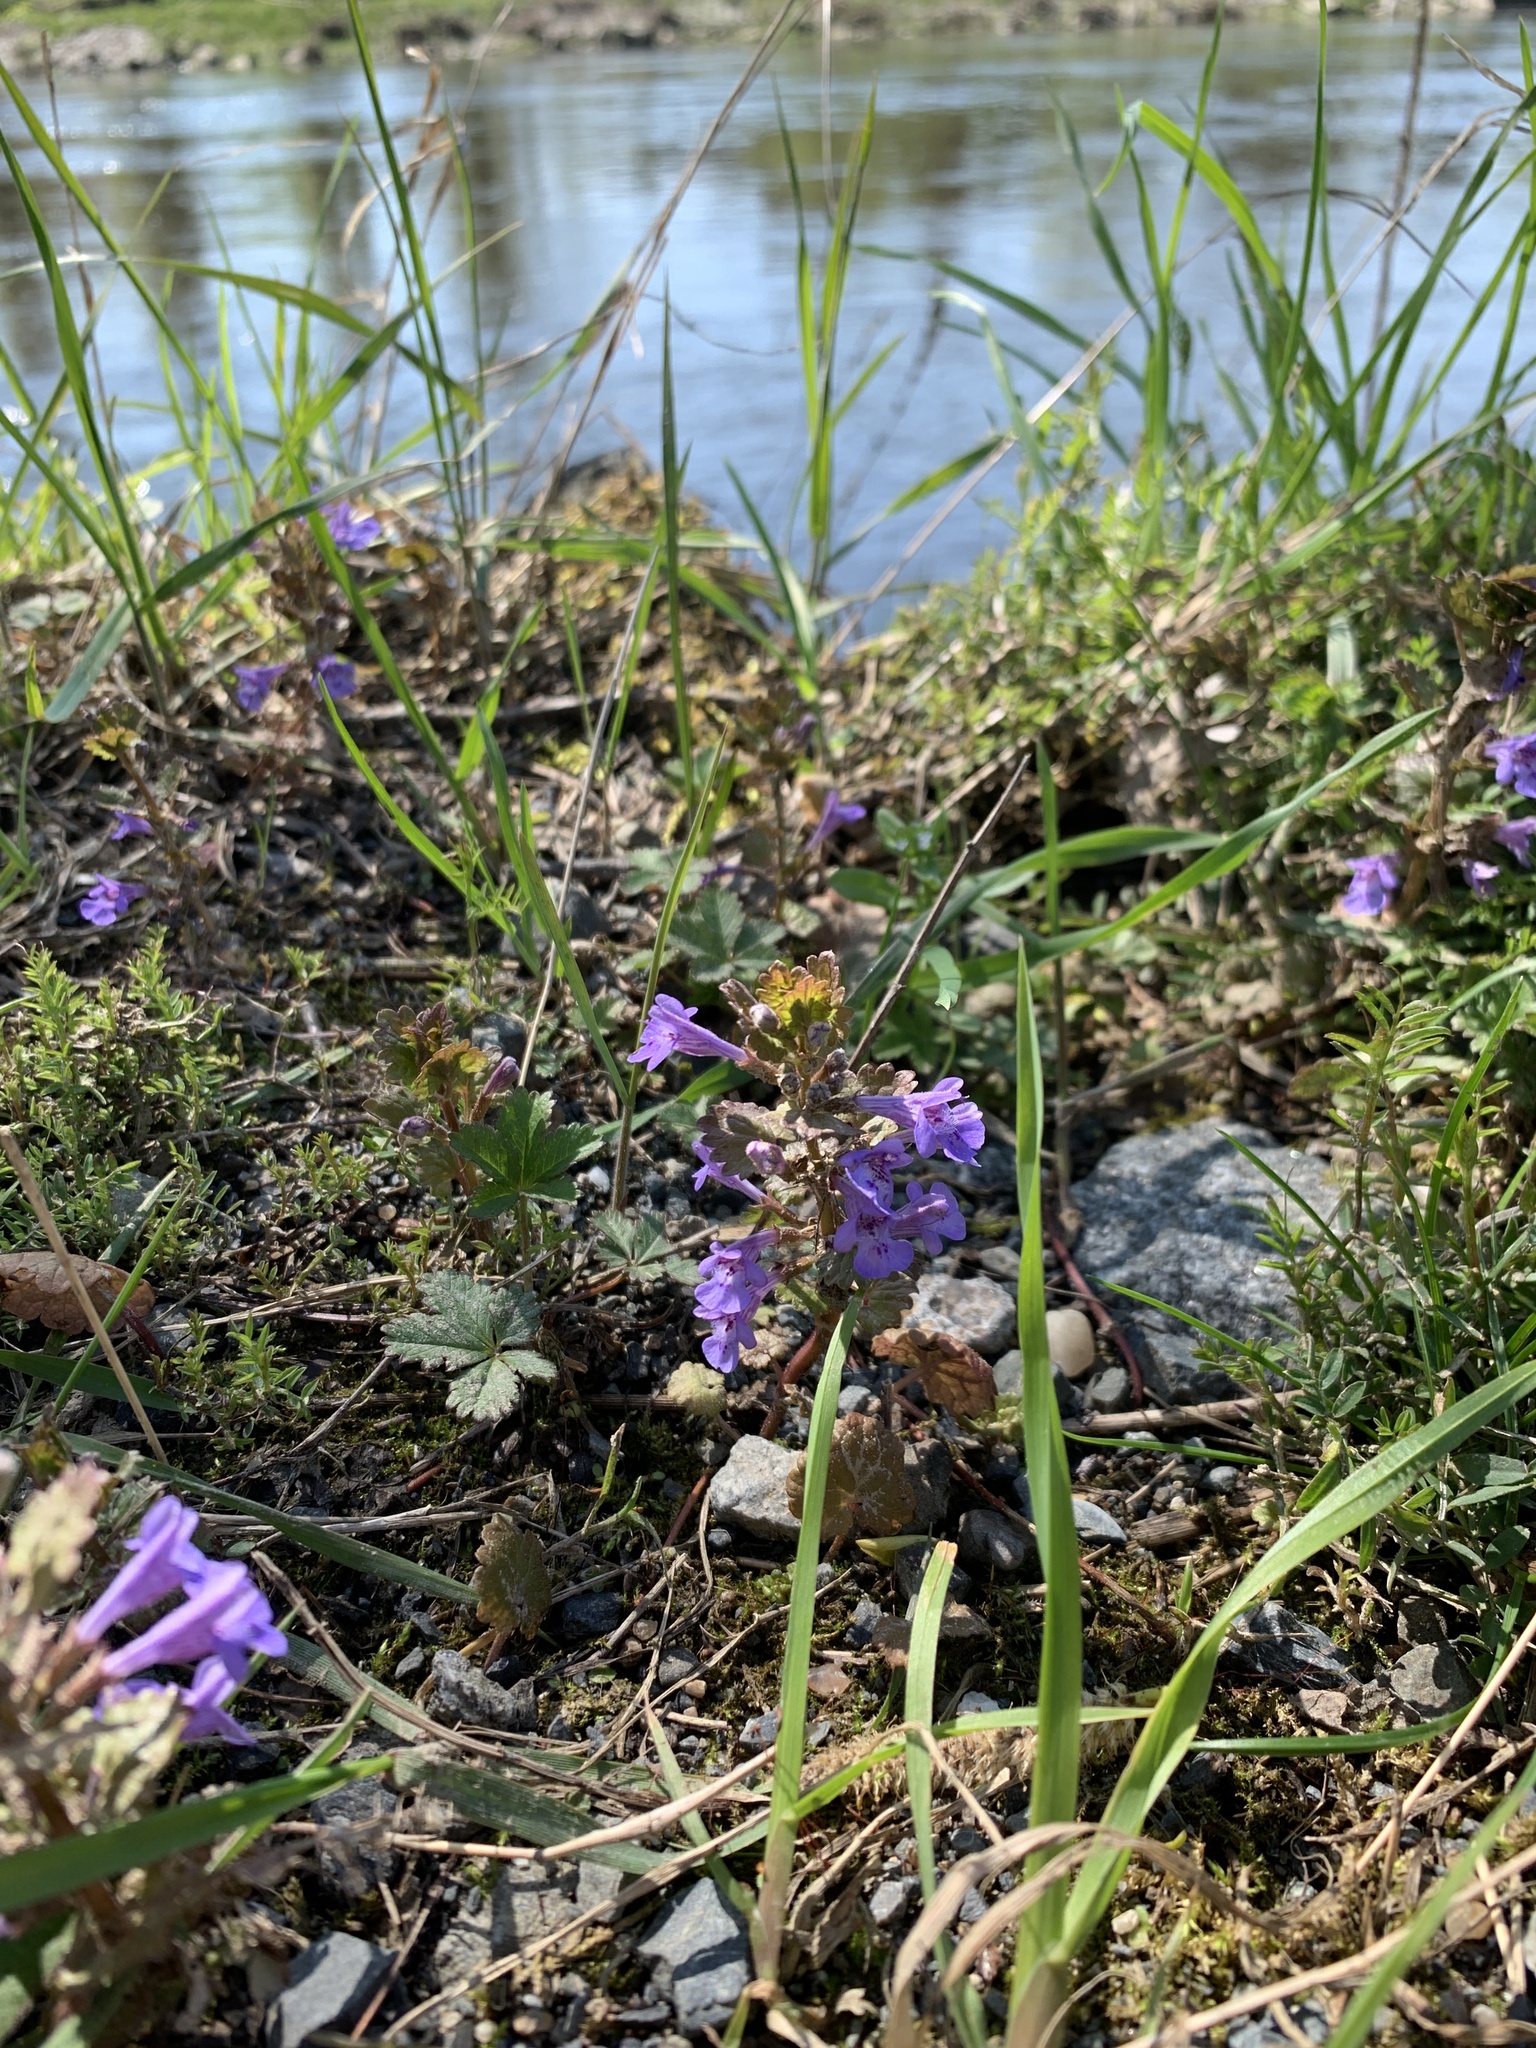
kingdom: Plantae
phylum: Tracheophyta
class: Magnoliopsida
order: Lamiales
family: Lamiaceae
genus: Glechoma
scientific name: Glechoma hederacea
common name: Ground ivy
